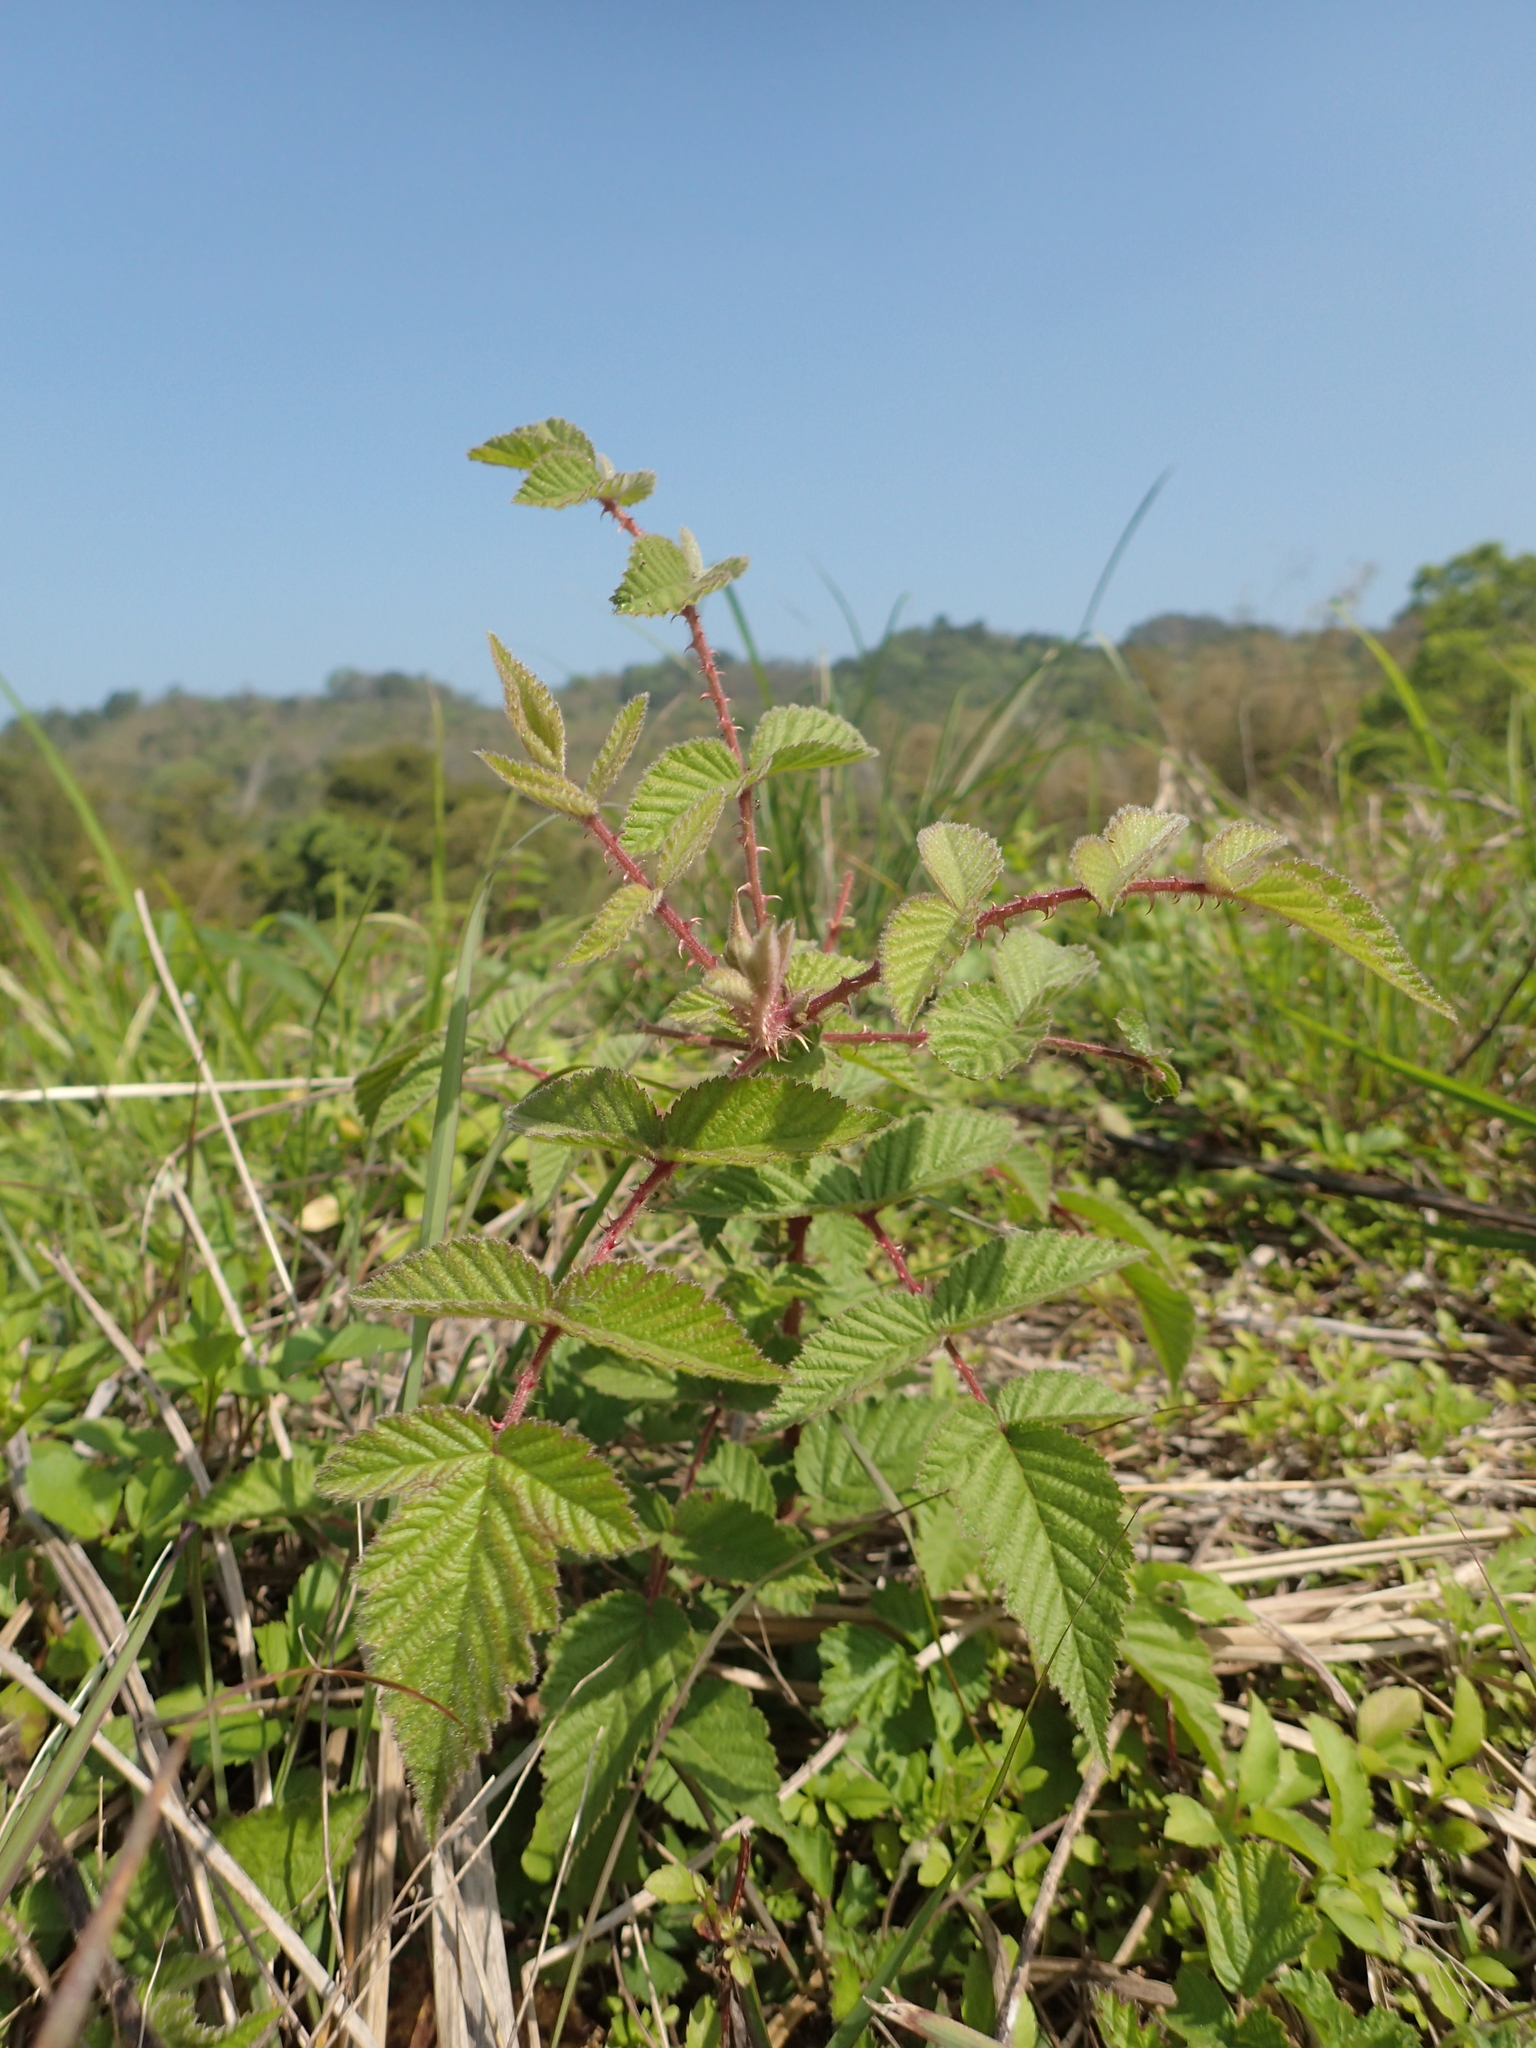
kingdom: Plantae
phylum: Tracheophyta
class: Magnoliopsida
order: Rosales
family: Rosaceae
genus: Rubus
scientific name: Rubus croceacanthus
